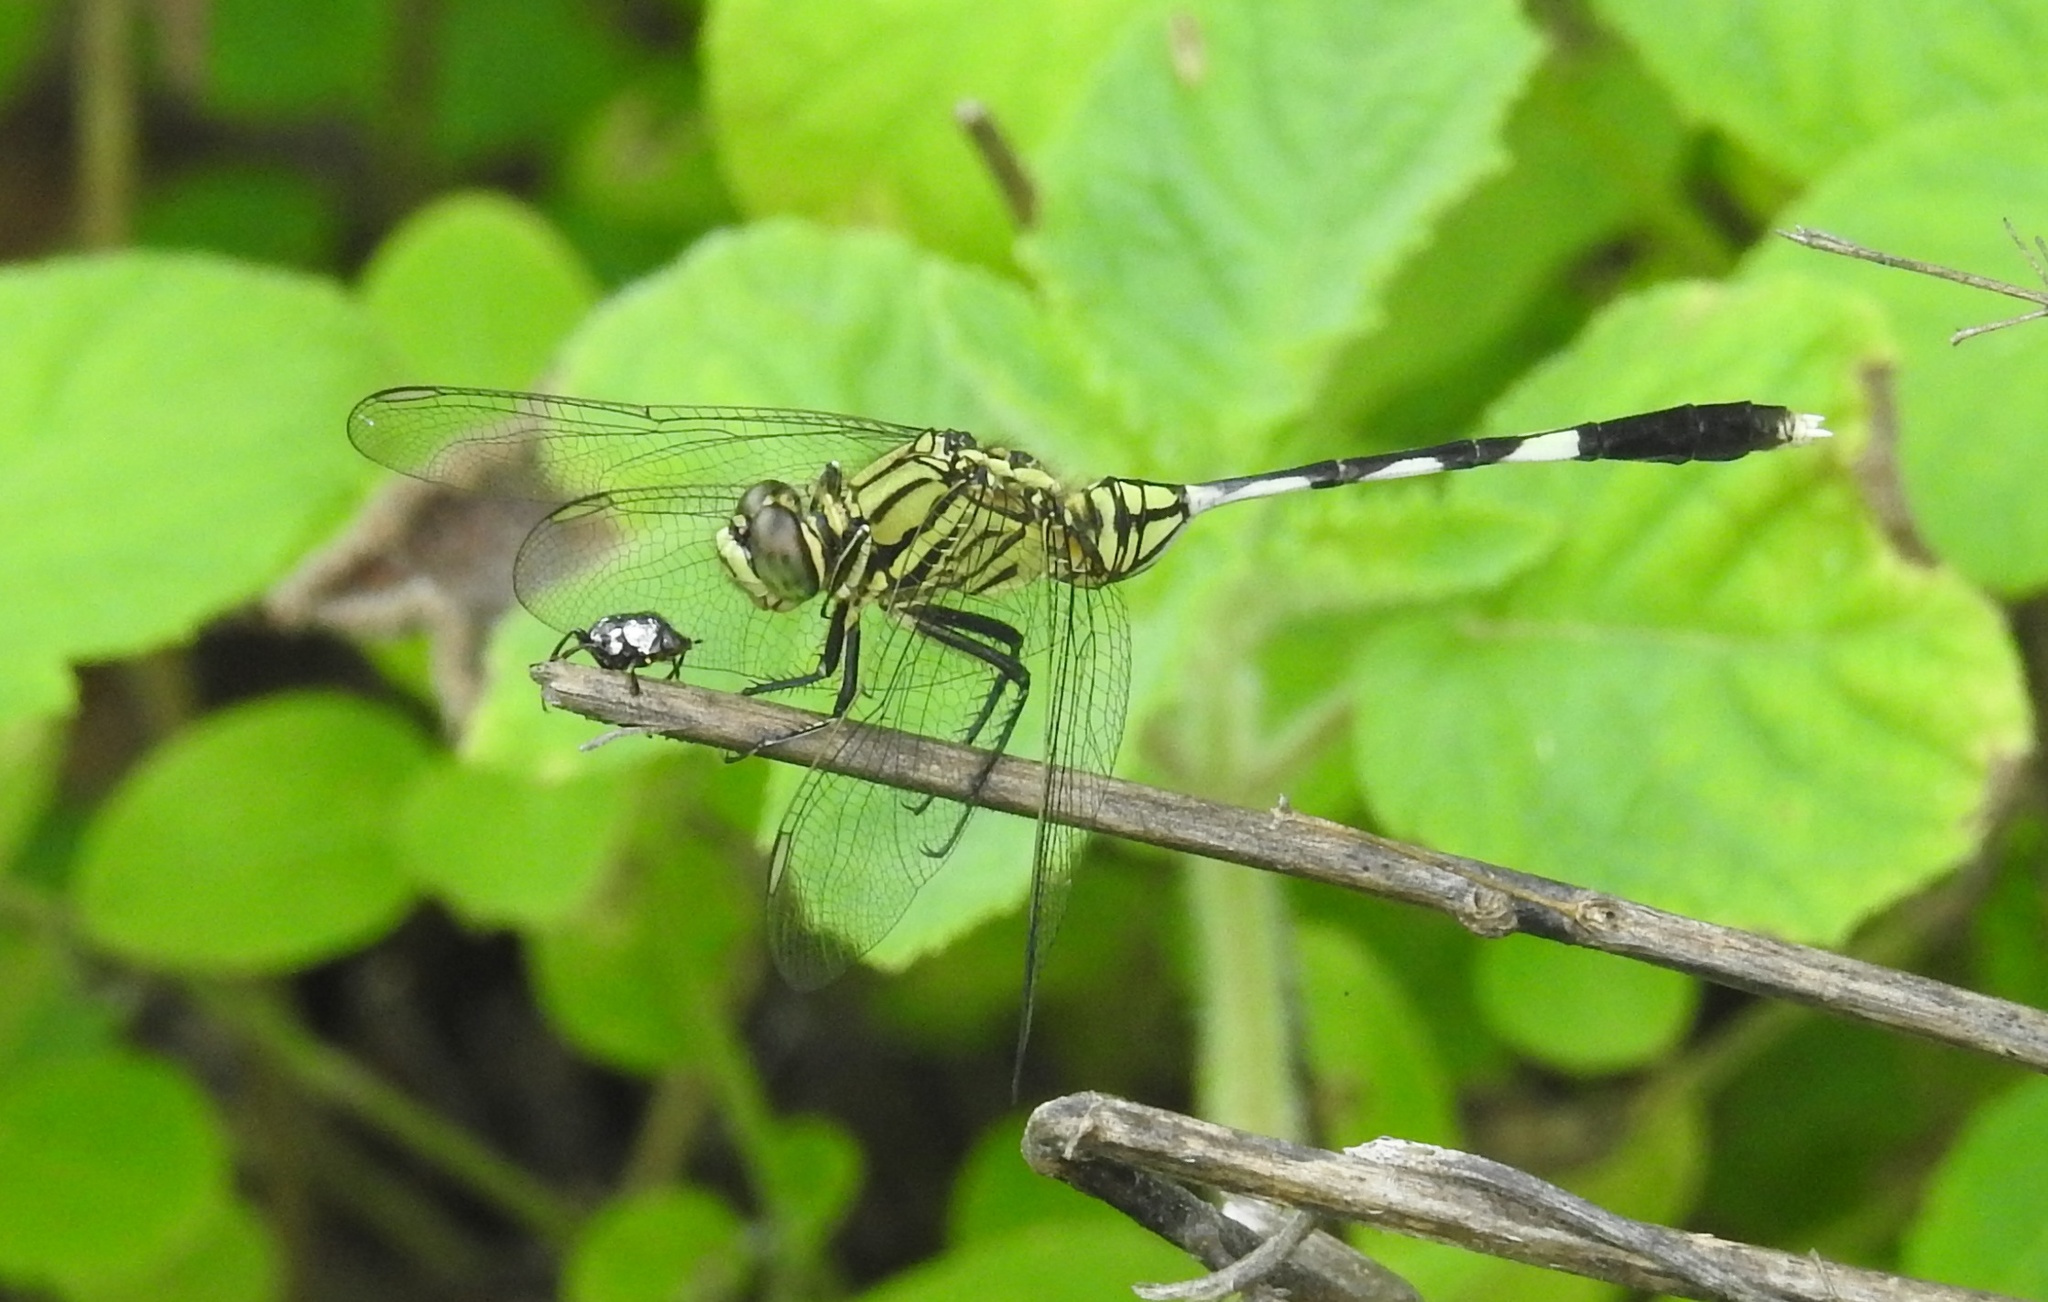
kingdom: Animalia
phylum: Arthropoda
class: Insecta
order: Odonata
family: Libellulidae
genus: Orthetrum
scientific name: Orthetrum sabina
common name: Slender skimmer
